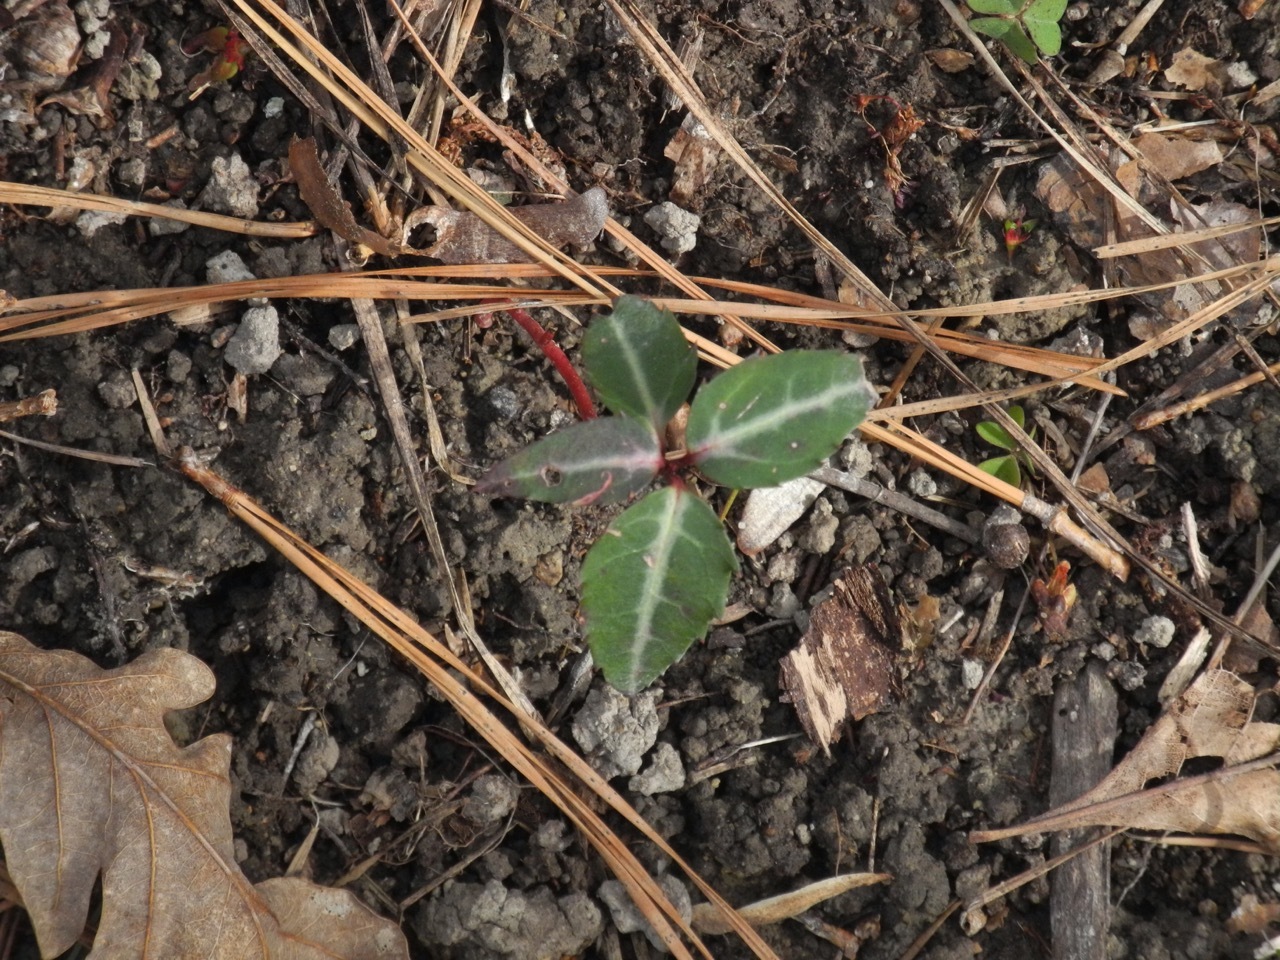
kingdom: Plantae
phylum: Tracheophyta
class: Magnoliopsida
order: Ericales
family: Ericaceae
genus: Chimaphila
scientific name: Chimaphila maculata
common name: Spotted pipsissewa
